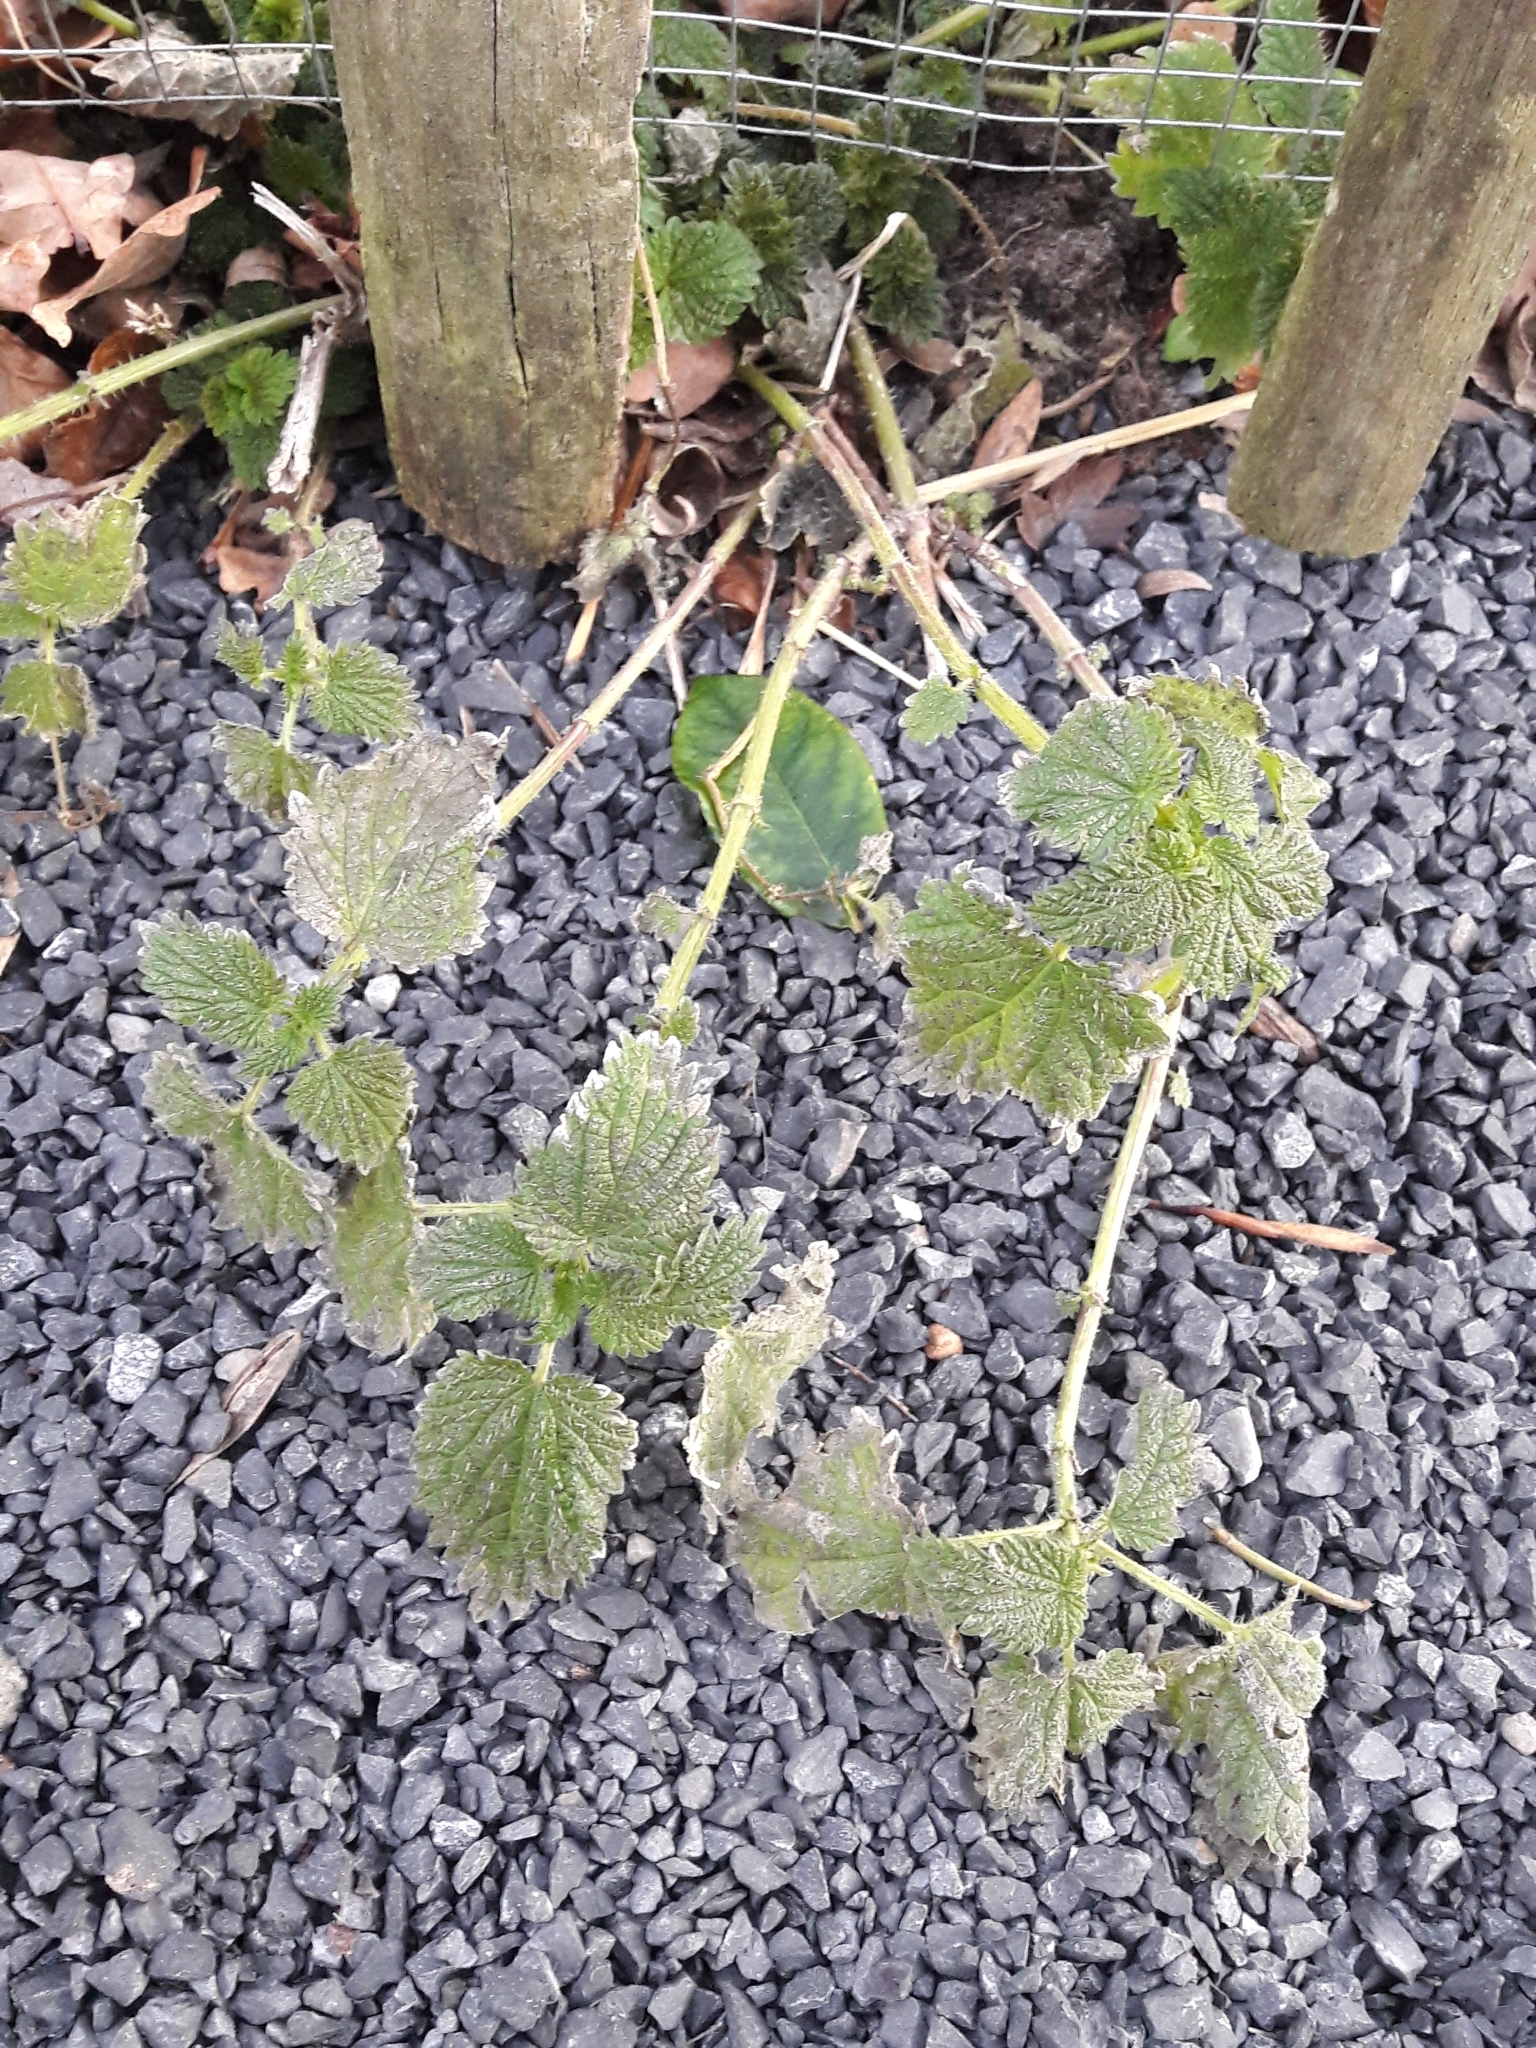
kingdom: Plantae
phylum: Tracheophyta
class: Magnoliopsida
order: Rosales
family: Urticaceae
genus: Urtica
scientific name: Urtica dioica
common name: Common nettle
